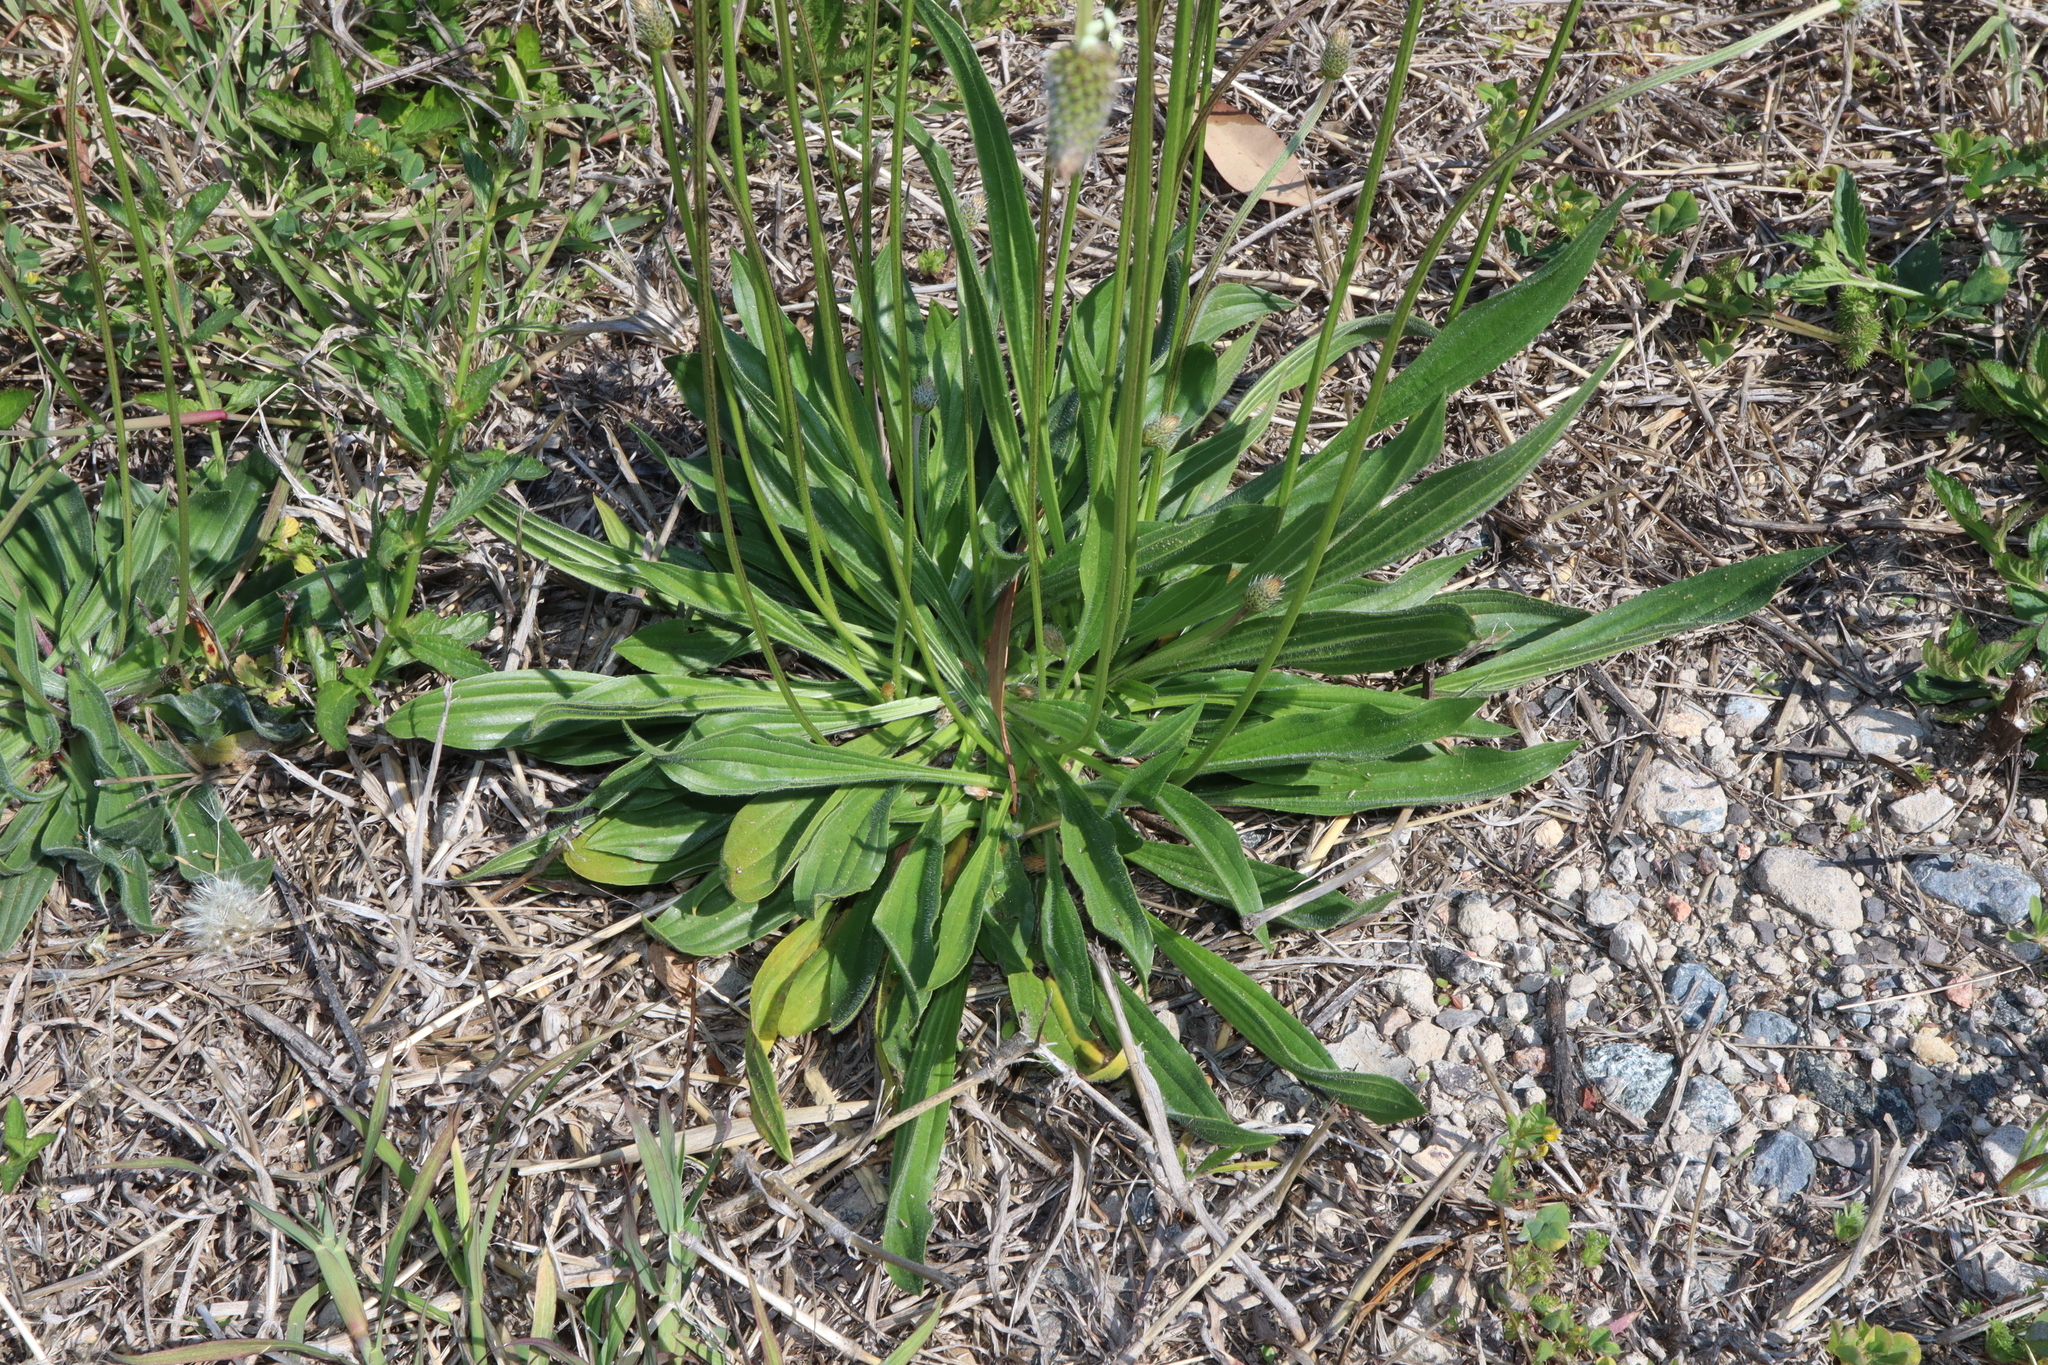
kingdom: Plantae
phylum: Tracheophyta
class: Magnoliopsida
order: Lamiales
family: Plantaginaceae
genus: Plantago
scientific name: Plantago lanceolata
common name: Ribwort plantain
